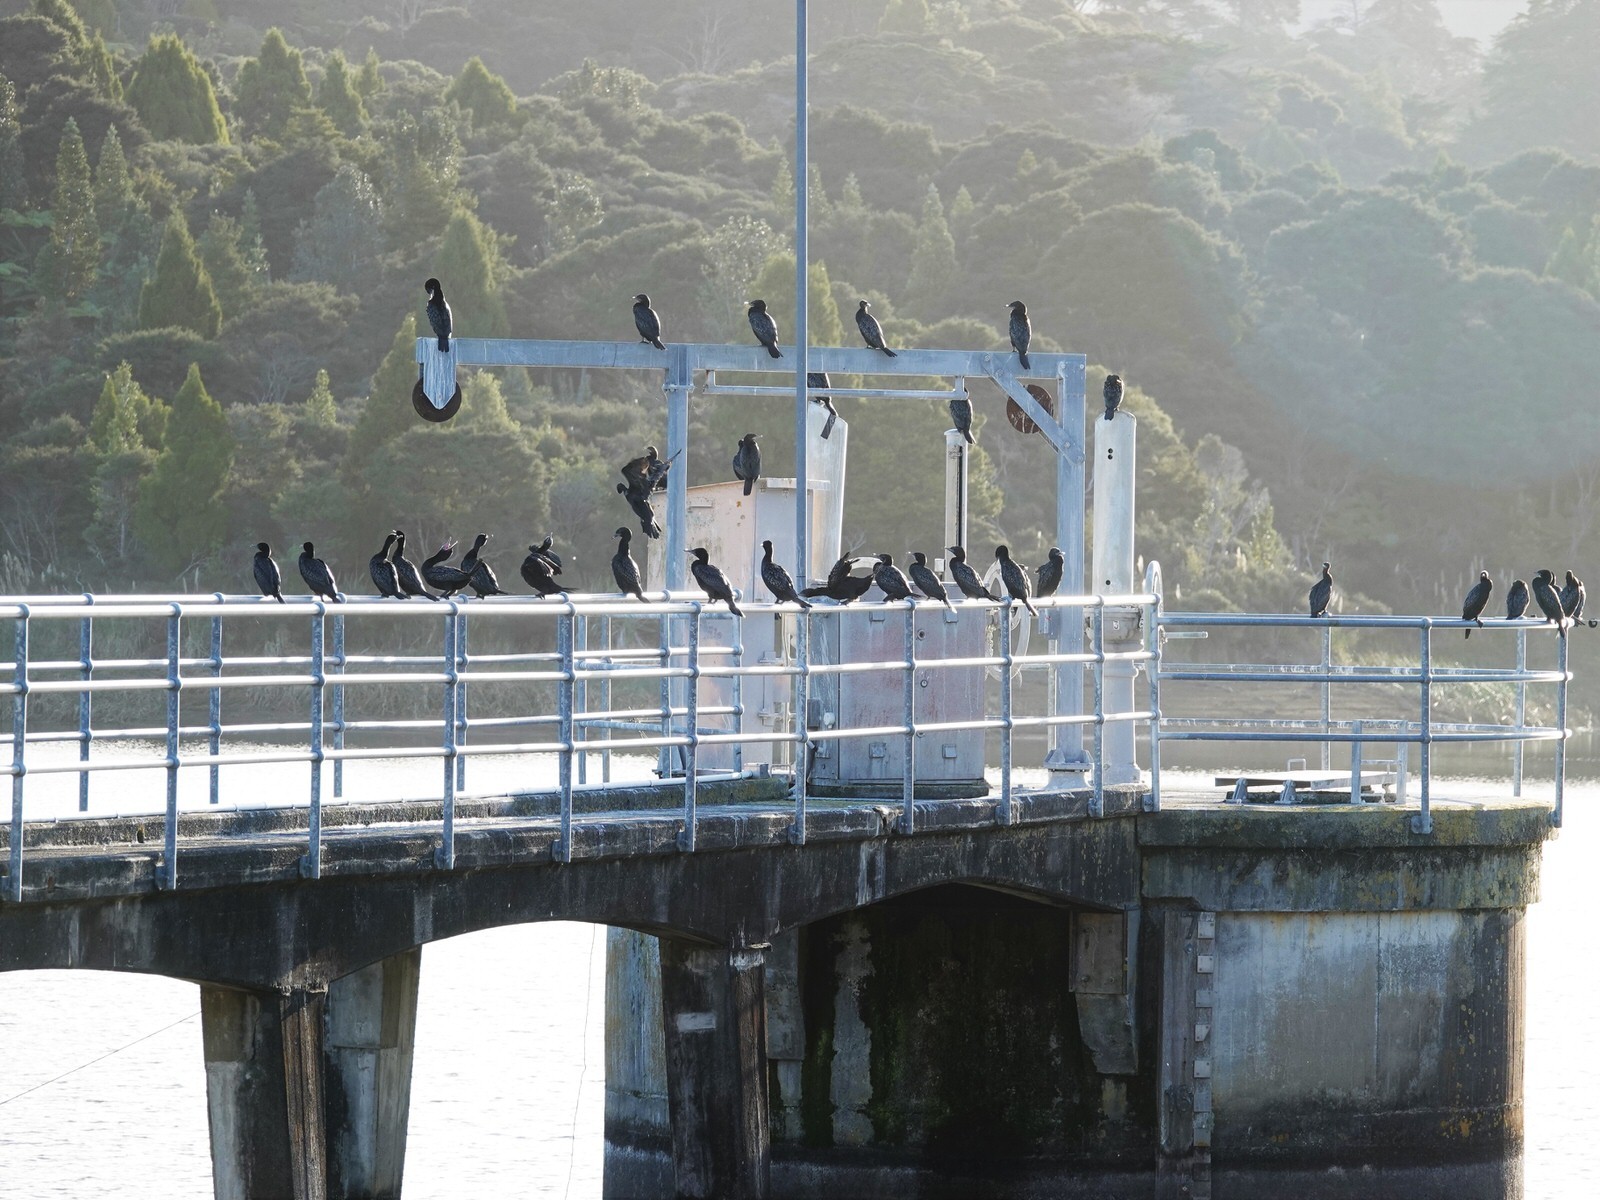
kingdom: Animalia
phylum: Chordata
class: Aves
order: Suliformes
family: Phalacrocoracidae
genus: Phalacrocorax
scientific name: Phalacrocorax sulcirostris
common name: Little black cormorant
